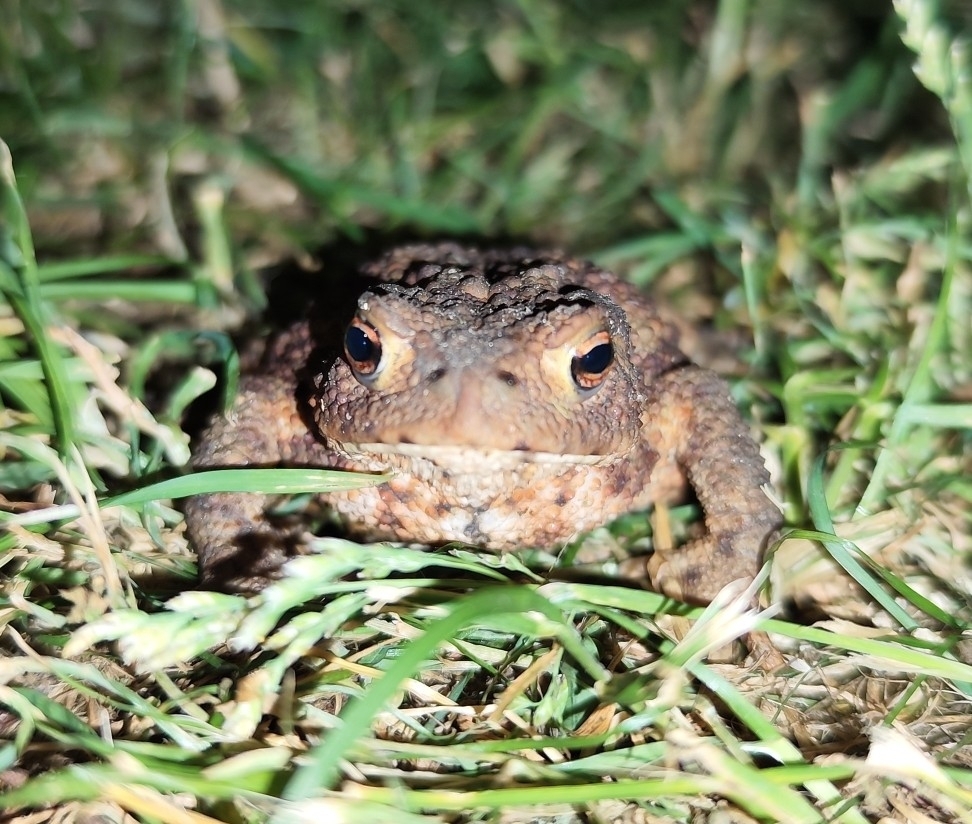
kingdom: Animalia
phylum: Chordata
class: Amphibia
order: Anura
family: Bufonidae
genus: Bufo
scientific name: Bufo bufo
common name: Common toad
